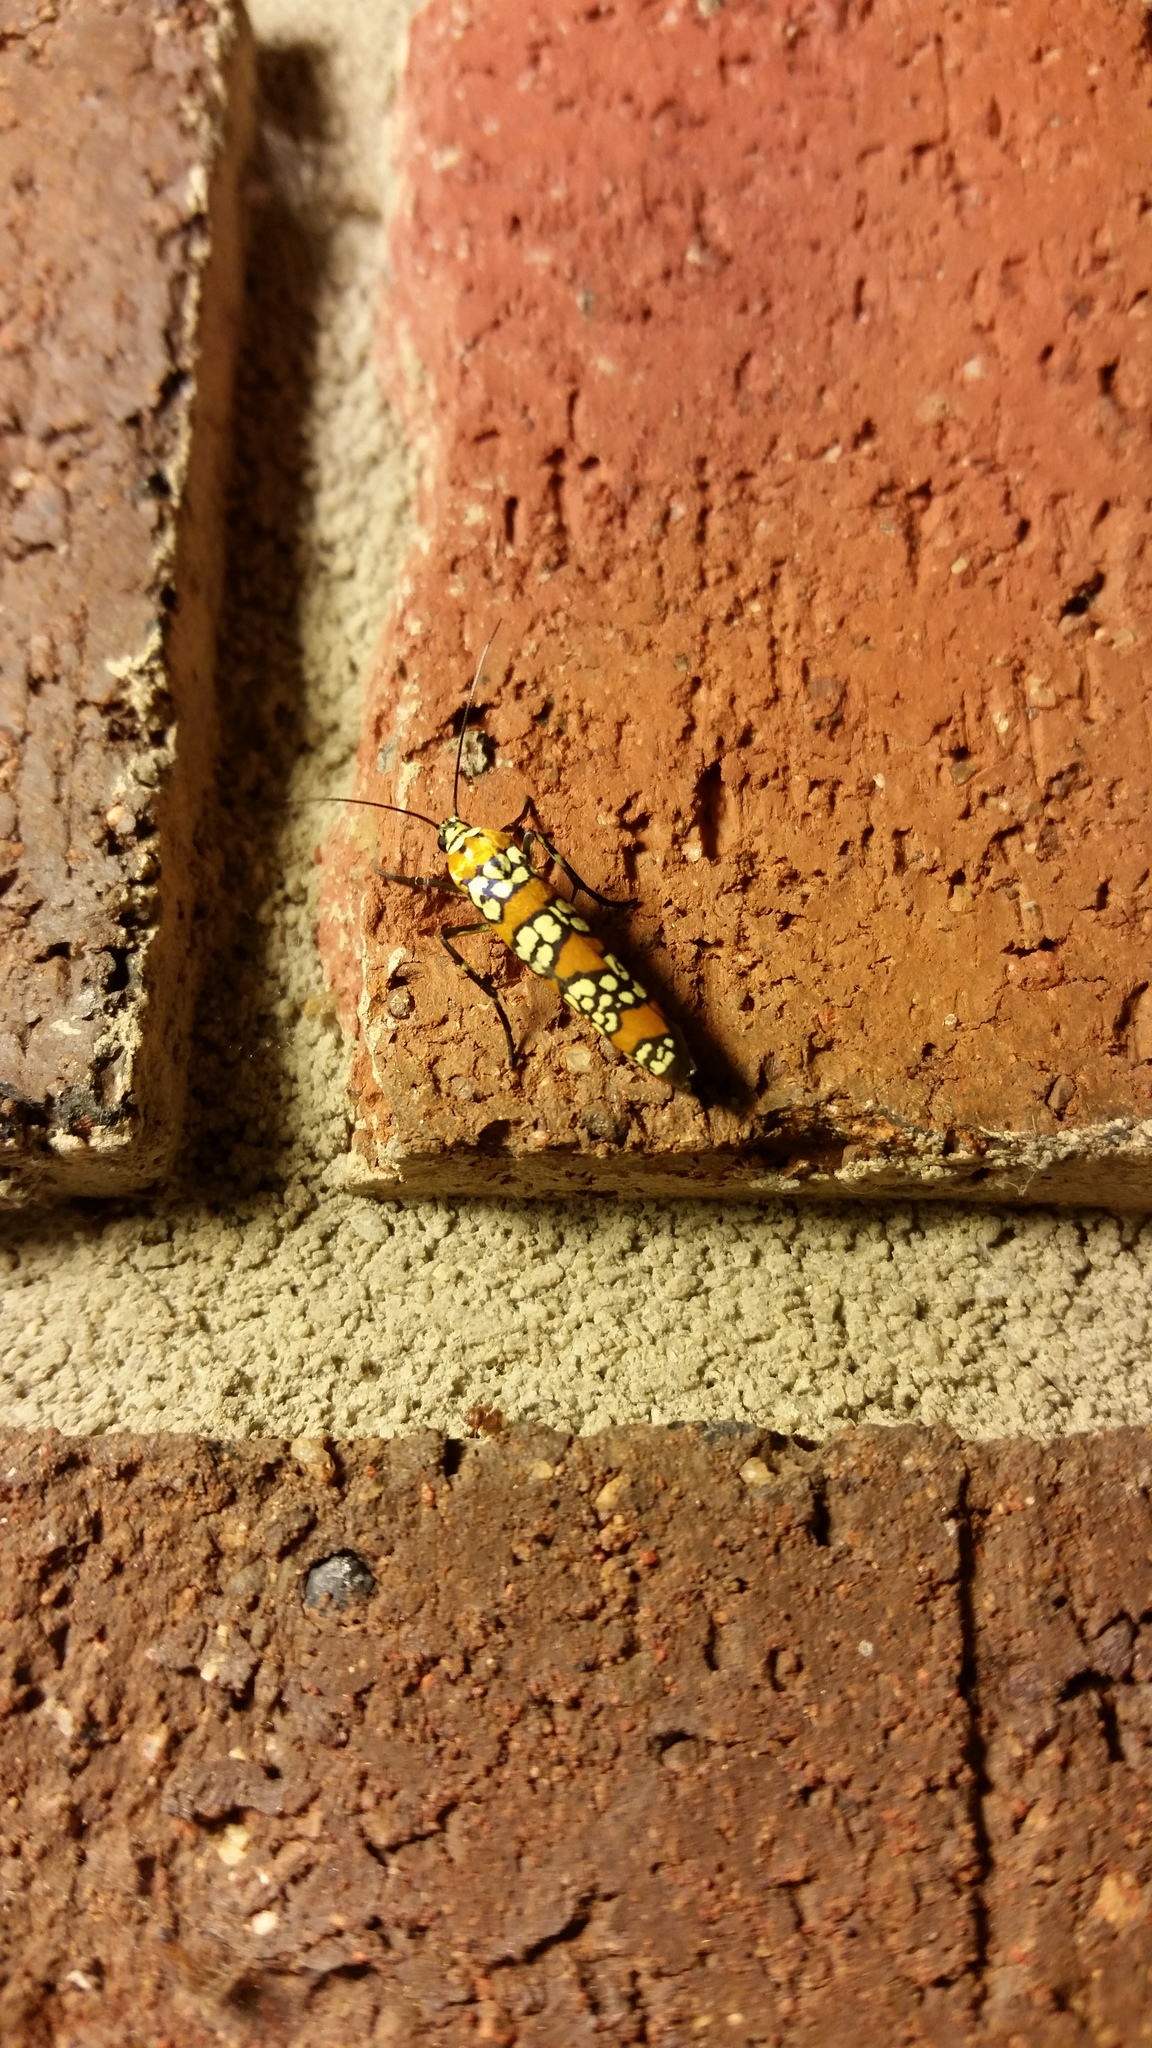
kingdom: Animalia
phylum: Arthropoda
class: Insecta
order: Lepidoptera
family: Attevidae
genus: Atteva
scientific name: Atteva punctella
